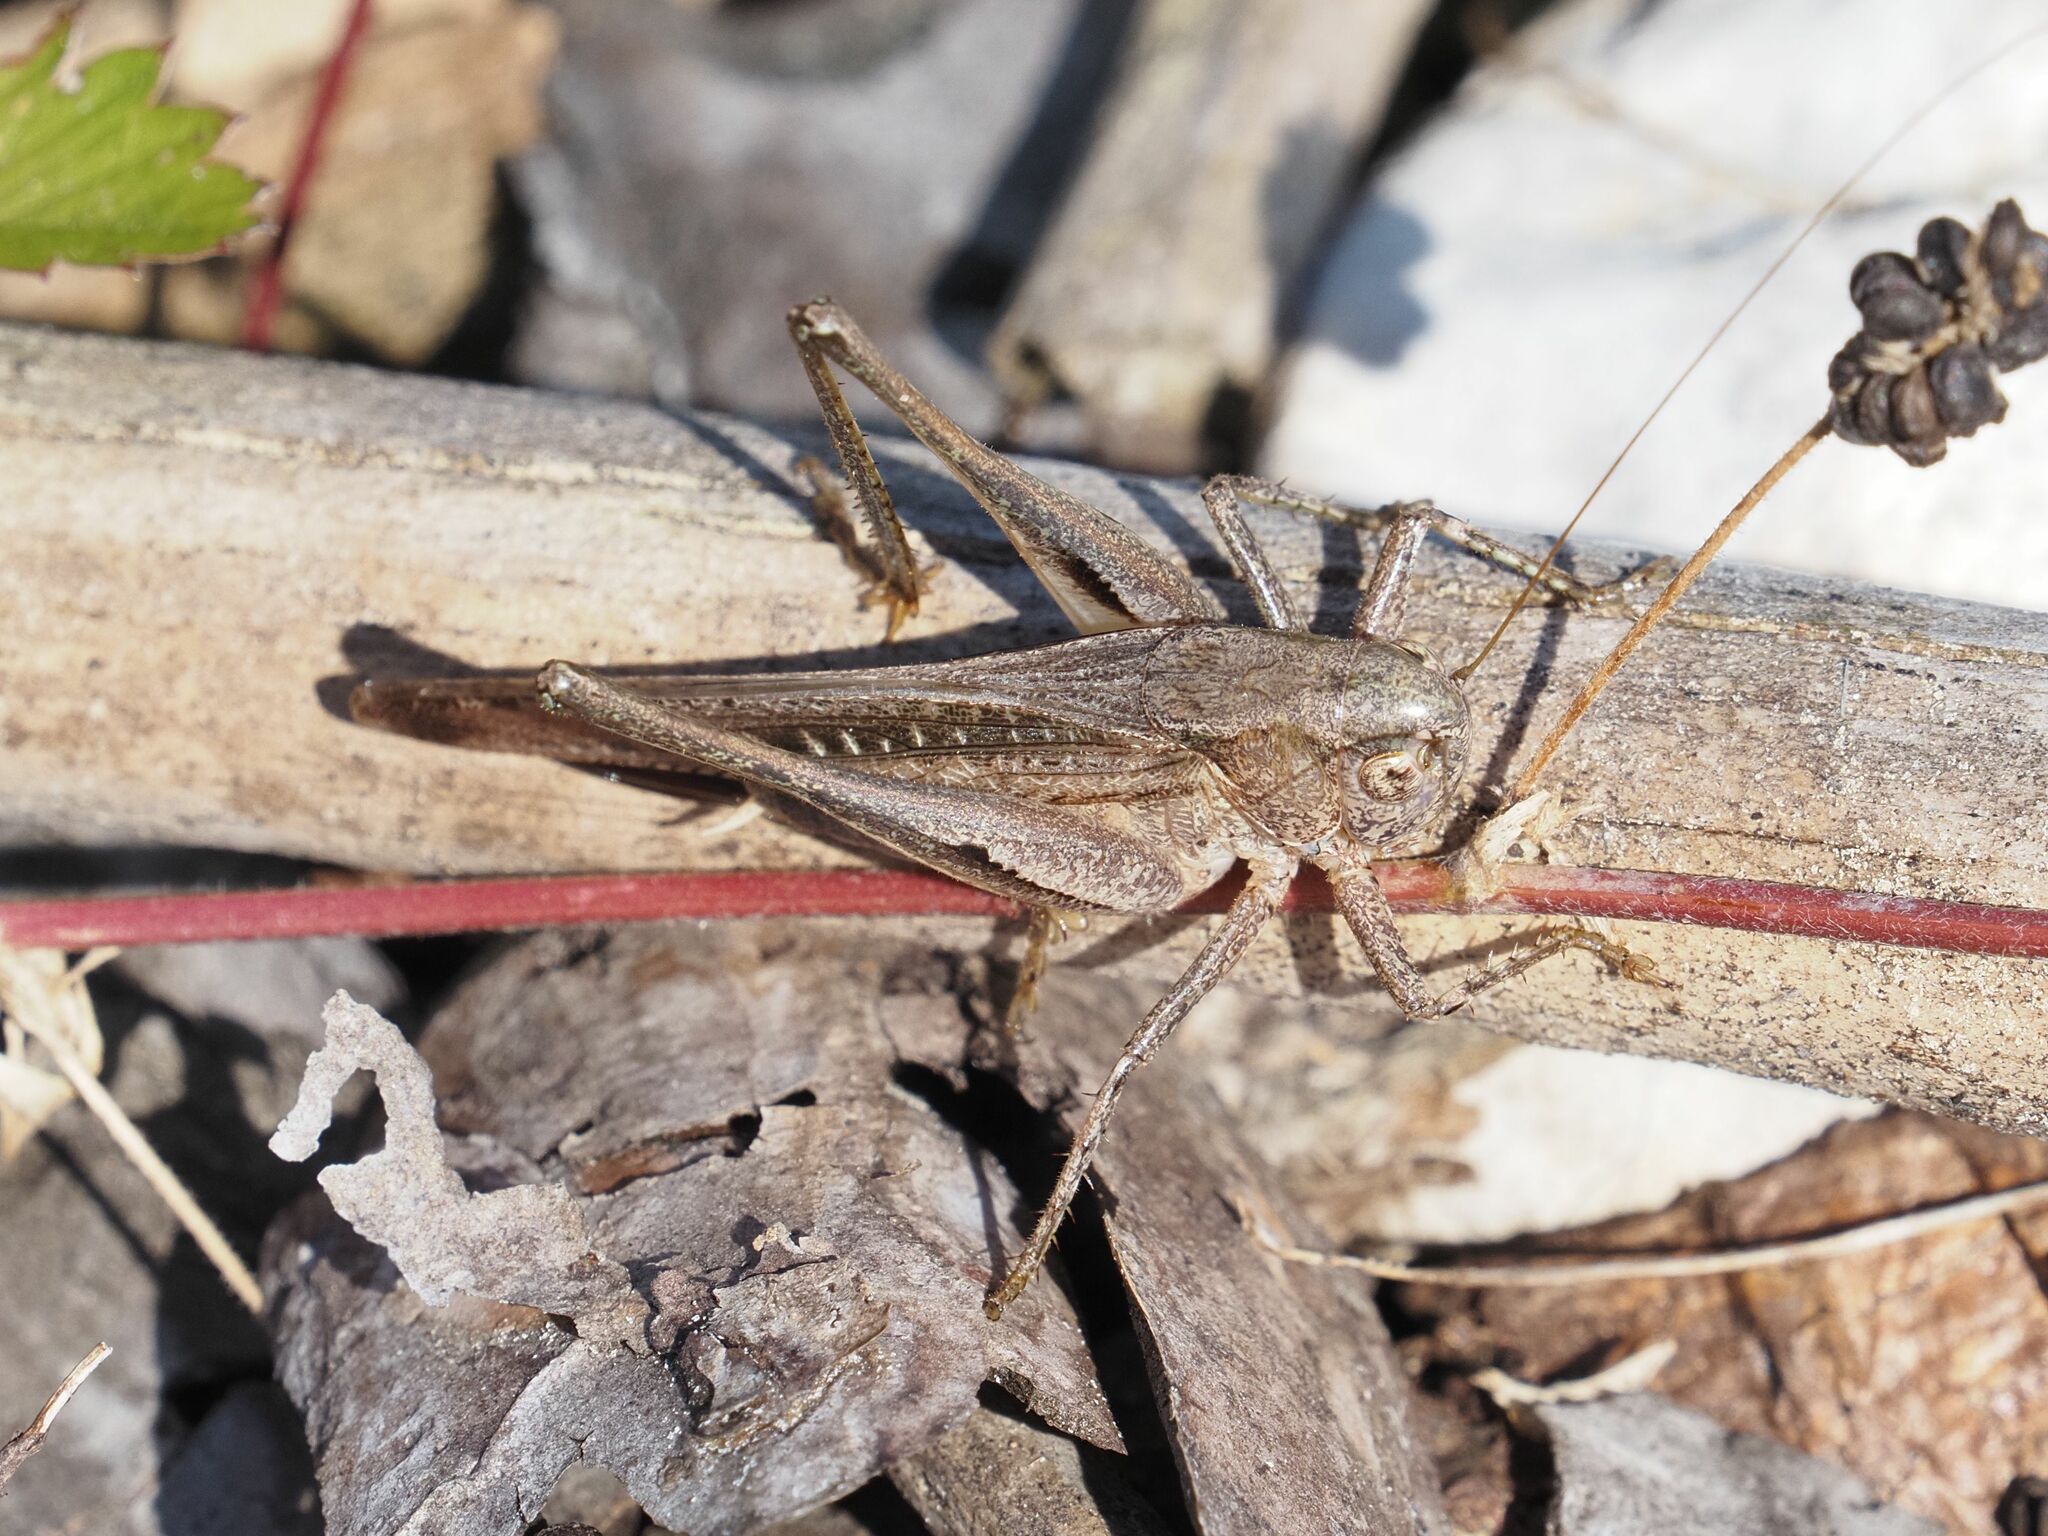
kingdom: Animalia
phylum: Arthropoda
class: Insecta
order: Orthoptera
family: Tettigoniidae
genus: Platycleis
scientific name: Platycleis grisea
